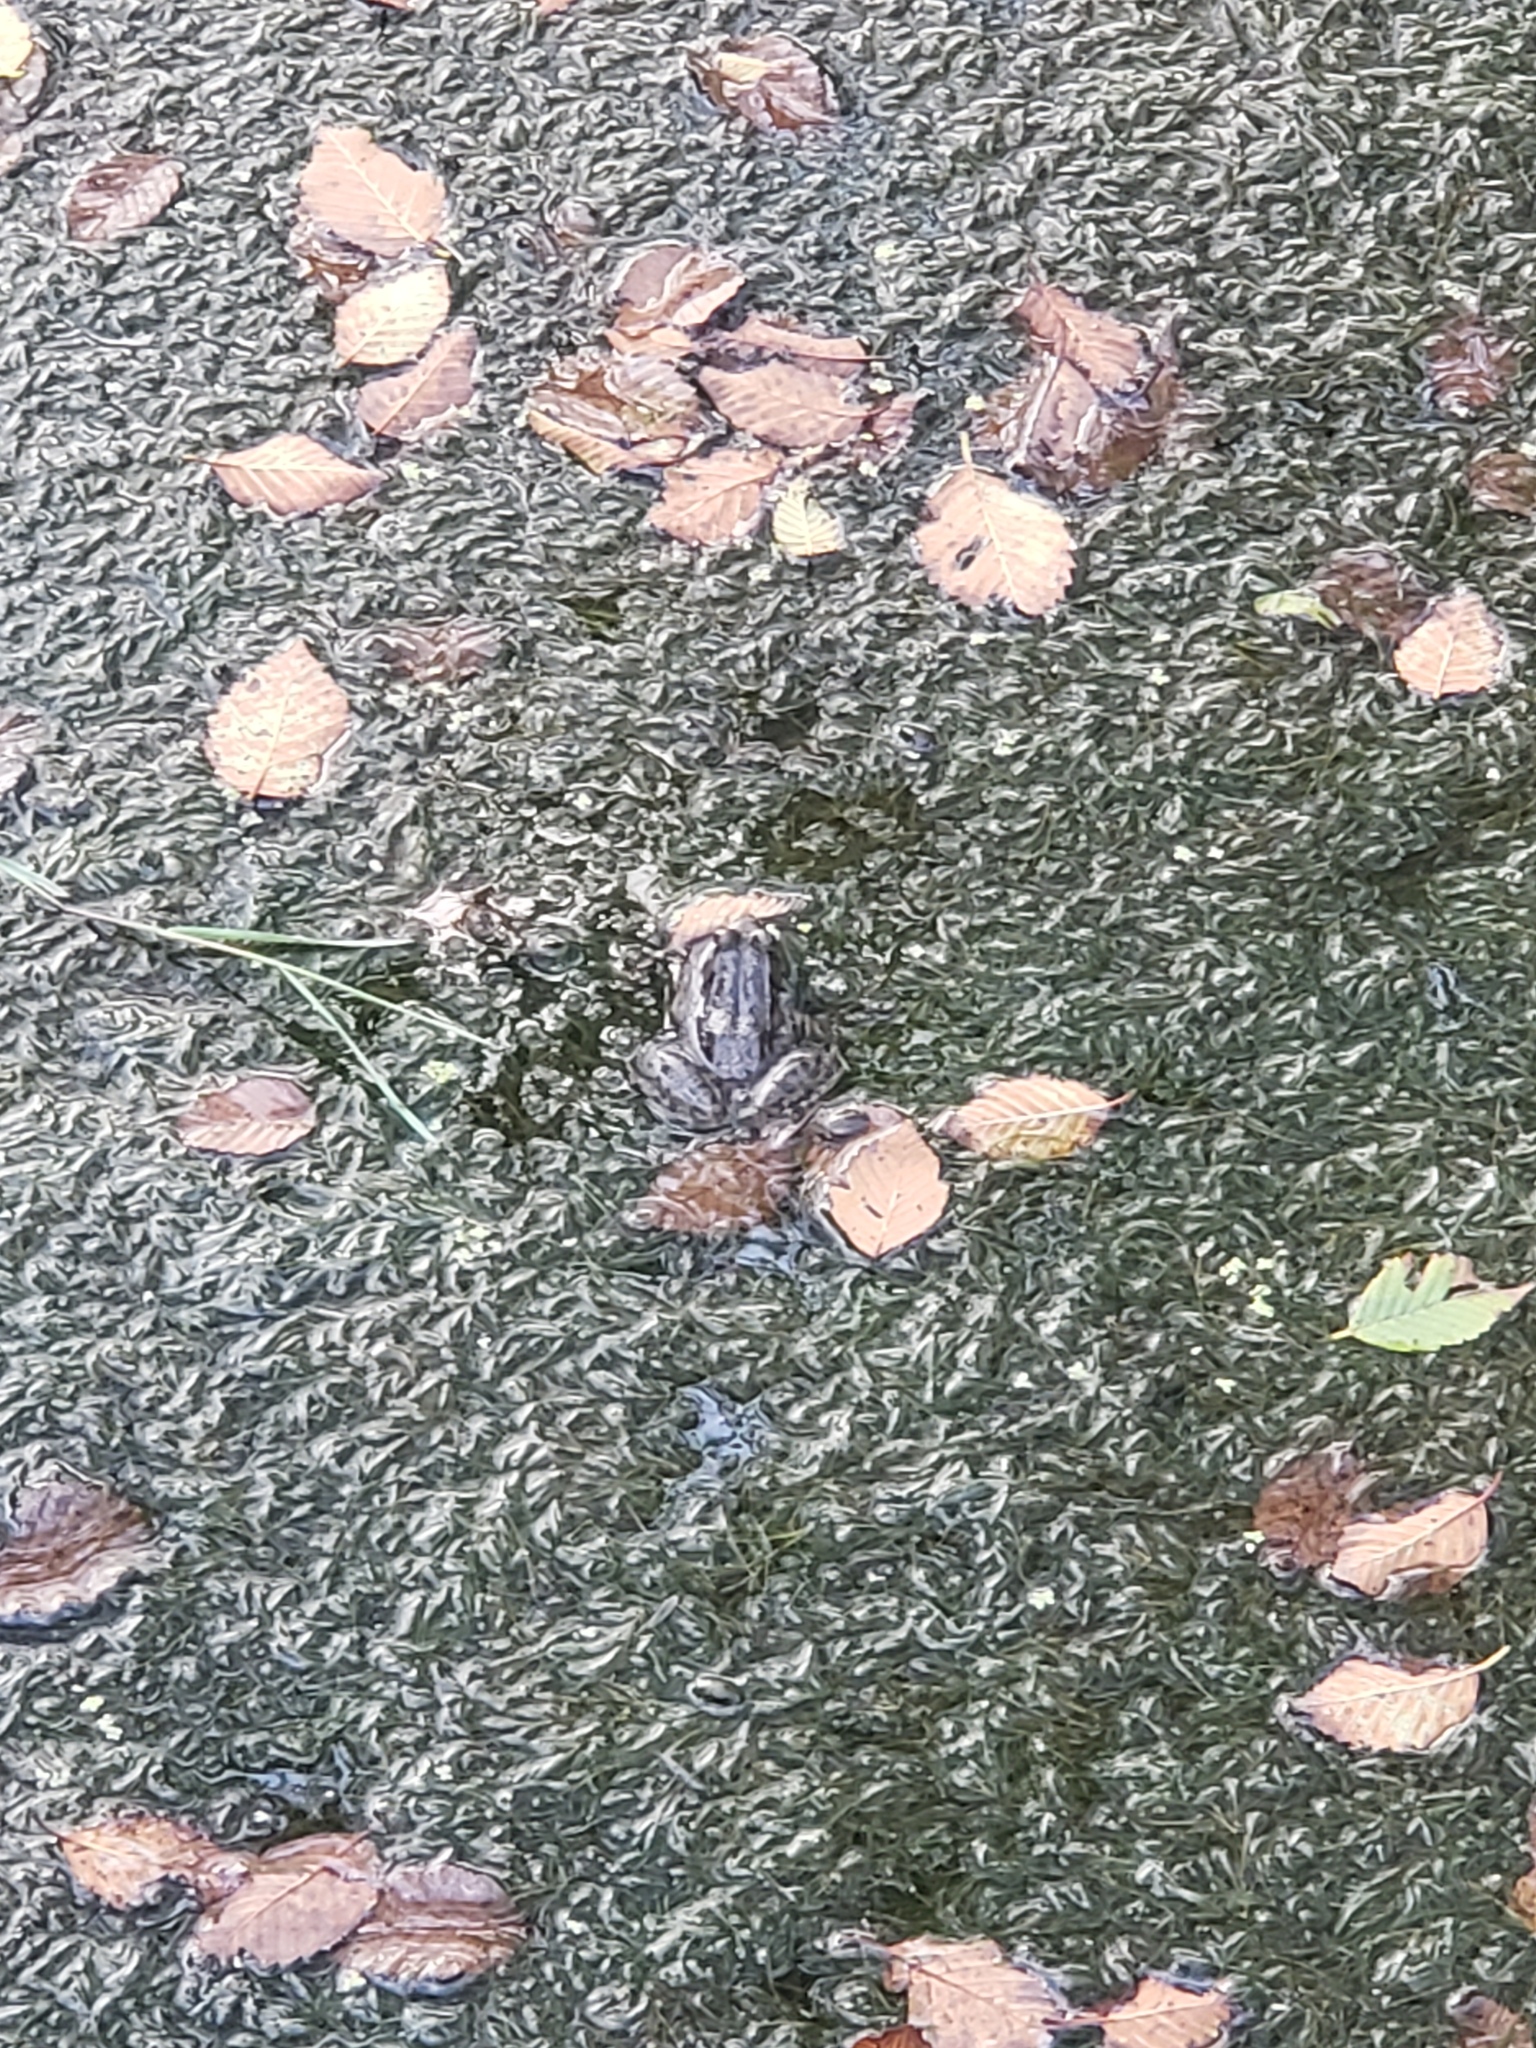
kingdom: Animalia
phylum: Chordata
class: Amphibia
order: Anura
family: Ranidae
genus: Lithobates
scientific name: Lithobates clamitans
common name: Green frog
